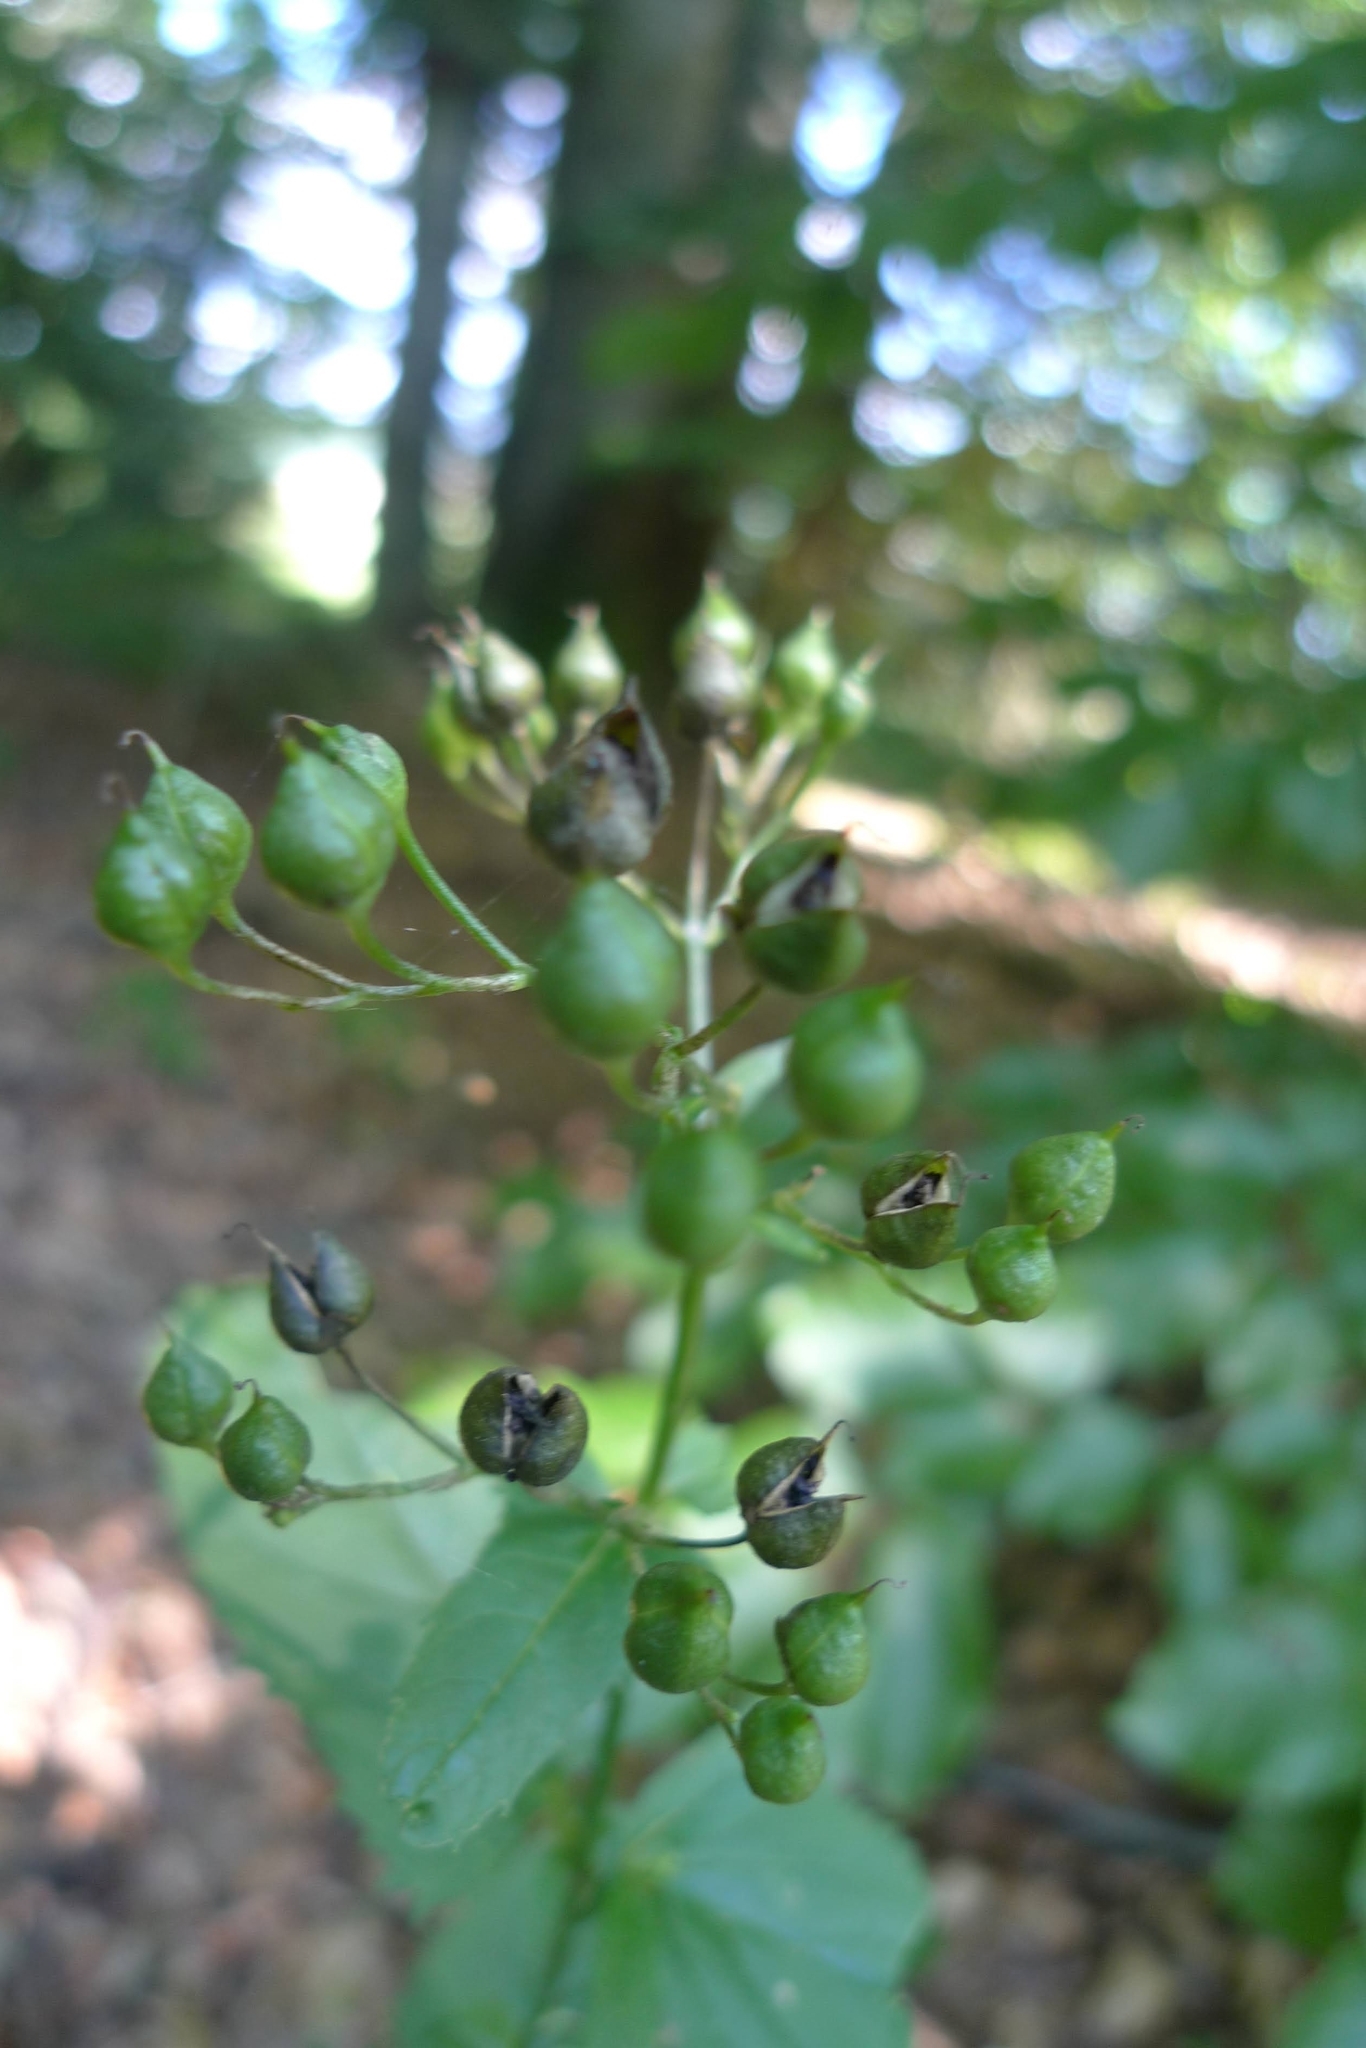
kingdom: Plantae
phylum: Tracheophyta
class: Magnoliopsida
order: Lamiales
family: Scrophulariaceae
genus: Scrophularia
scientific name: Scrophularia nodosa
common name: Common figwort
